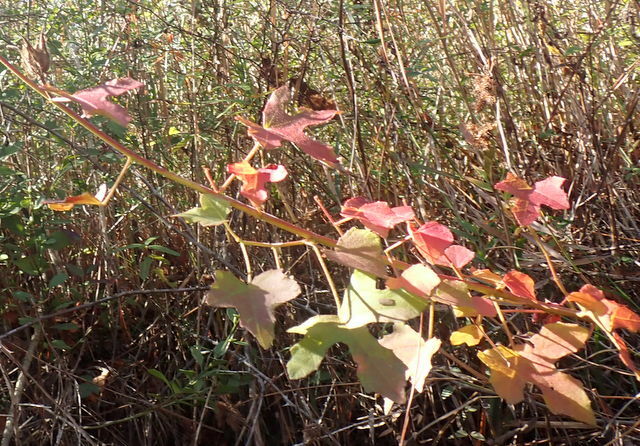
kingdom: Plantae
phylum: Tracheophyta
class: Magnoliopsida
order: Malvales
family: Malvaceae
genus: Hibiscus
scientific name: Hibiscus aculeatus
